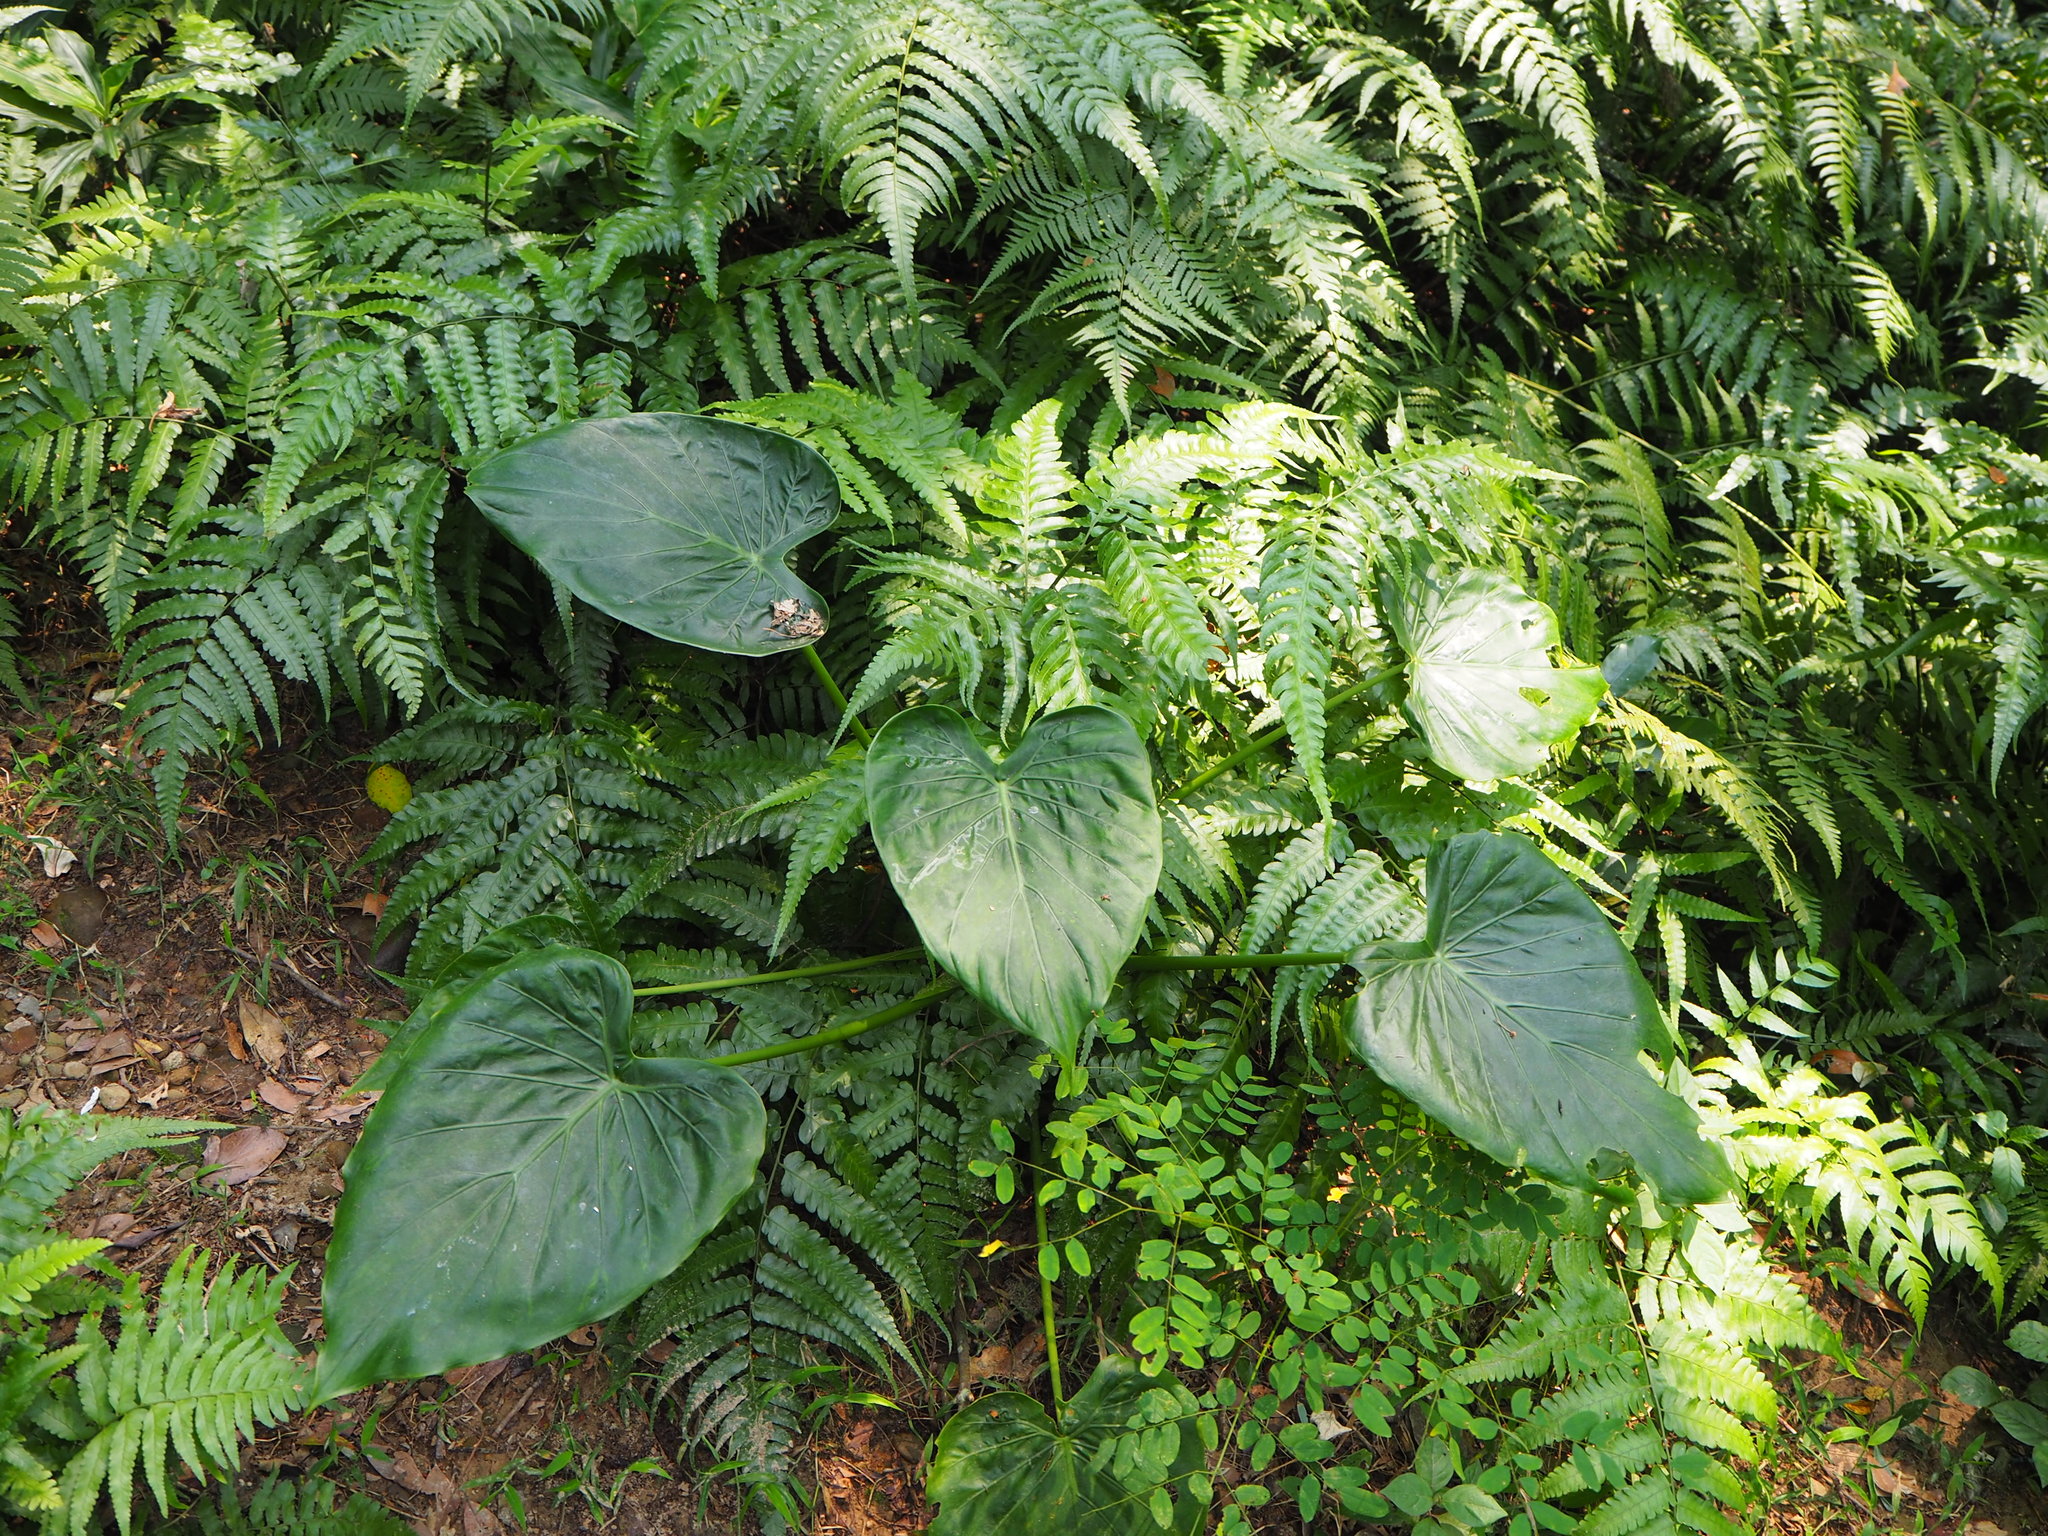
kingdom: Plantae
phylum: Tracheophyta
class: Liliopsida
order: Alismatales
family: Araceae
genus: Alocasia
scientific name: Alocasia cucullata
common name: Buddha's hand
